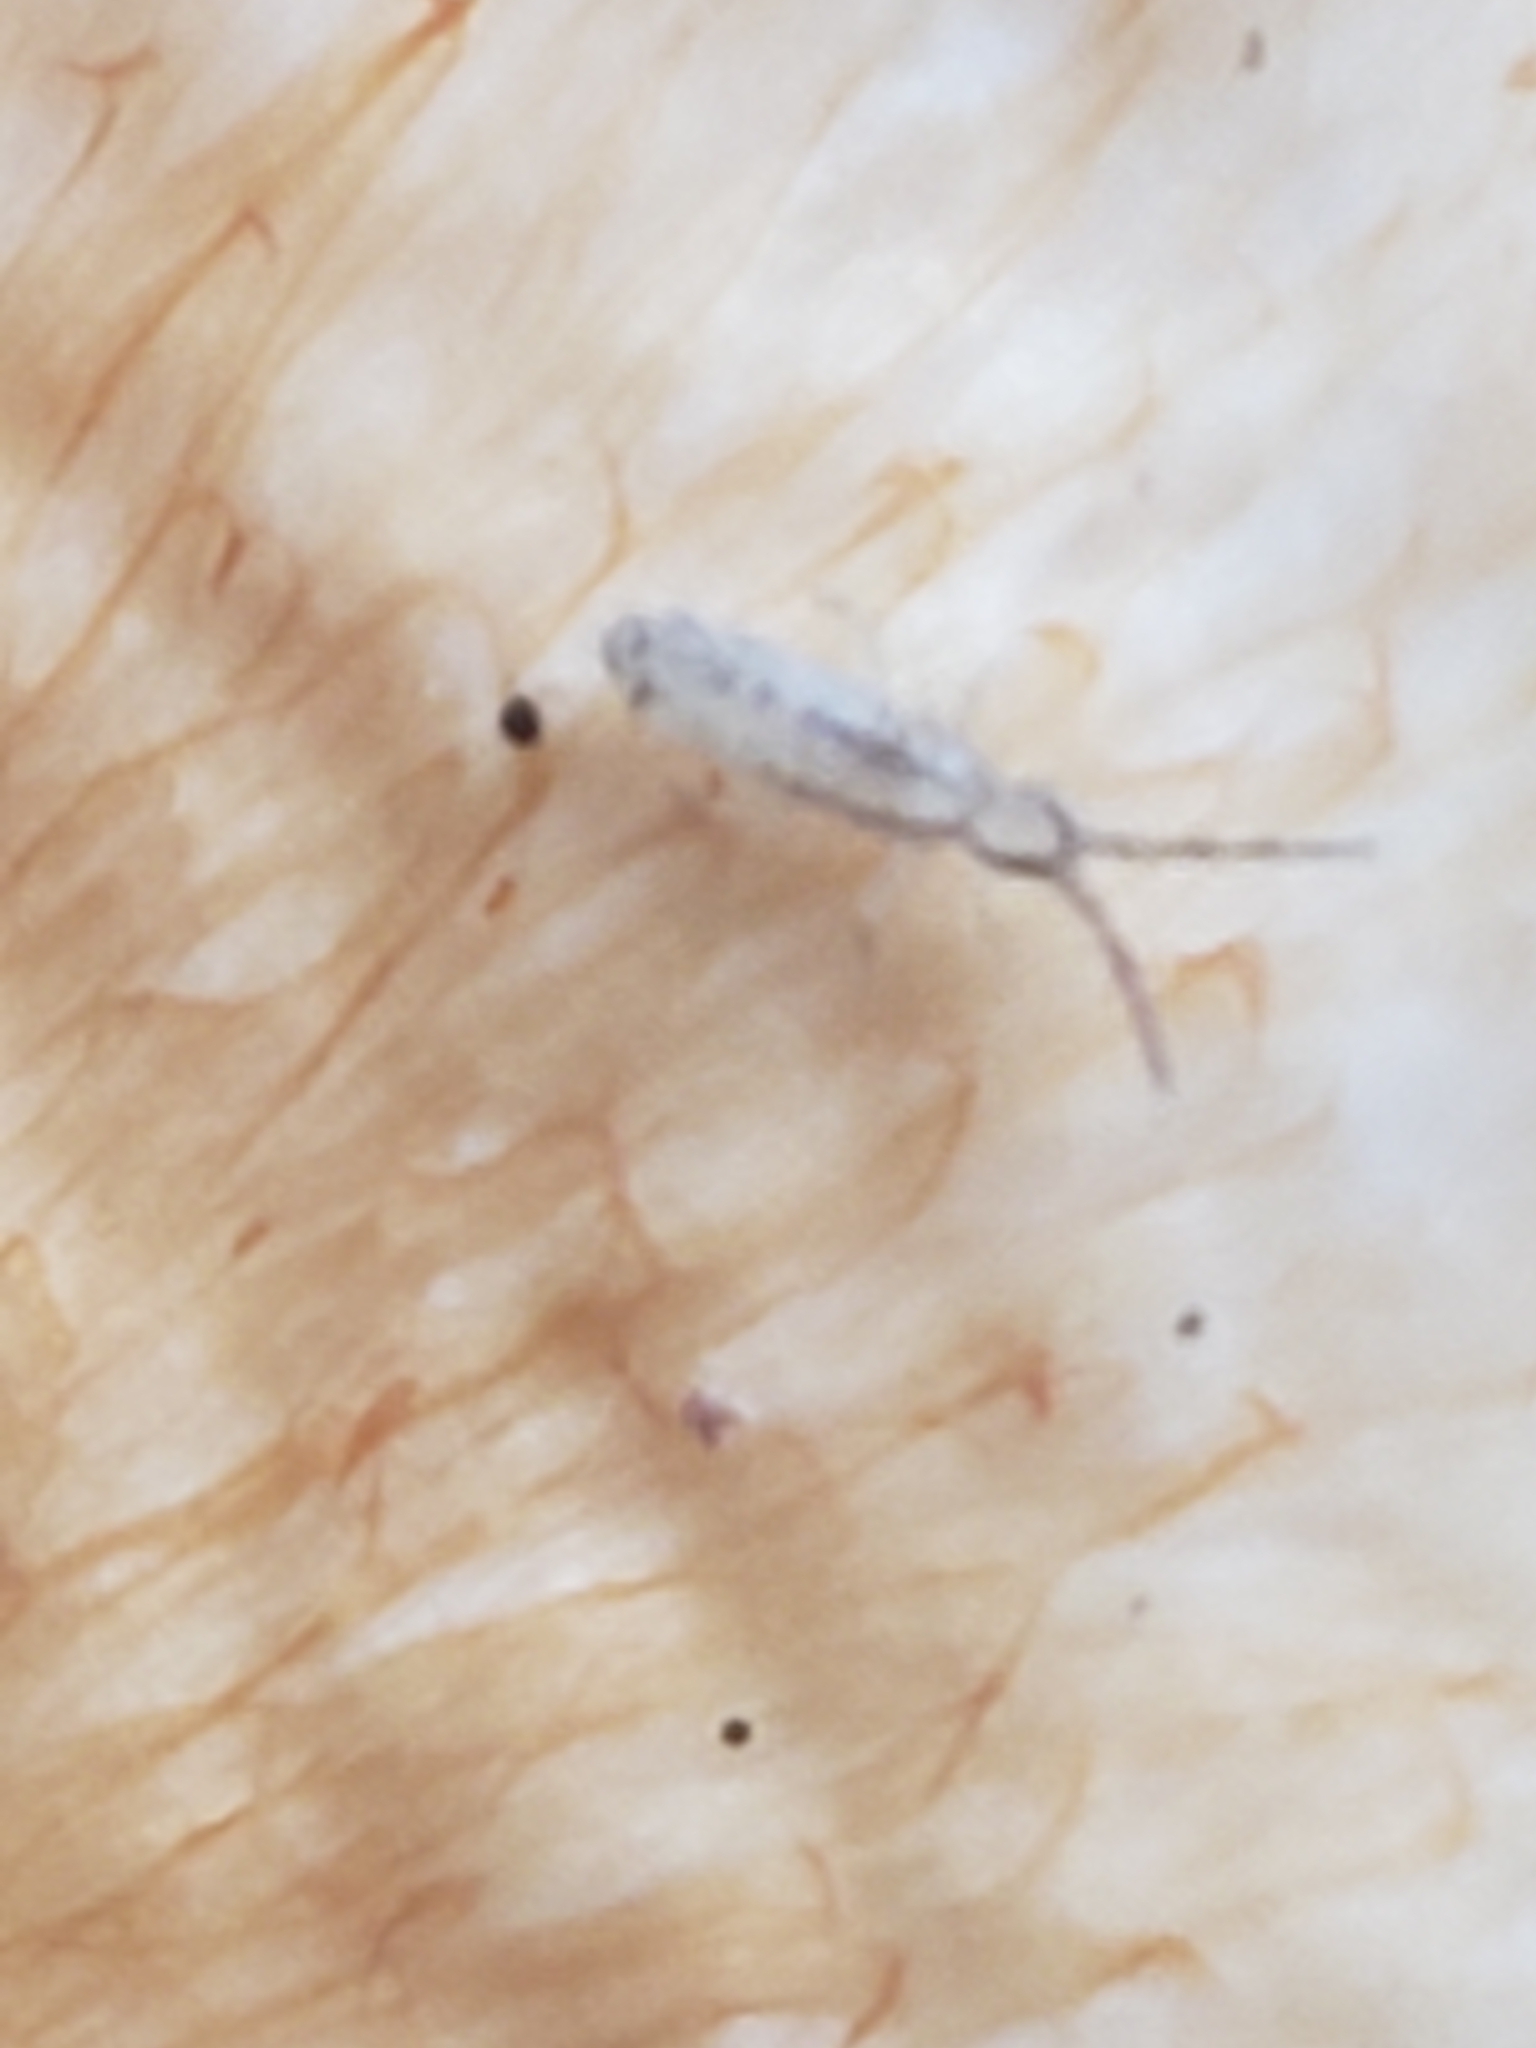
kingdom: Animalia
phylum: Arthropoda
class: Collembola
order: Entomobryomorpha
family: Entomobryidae
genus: Homidia
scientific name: Homidia socia
